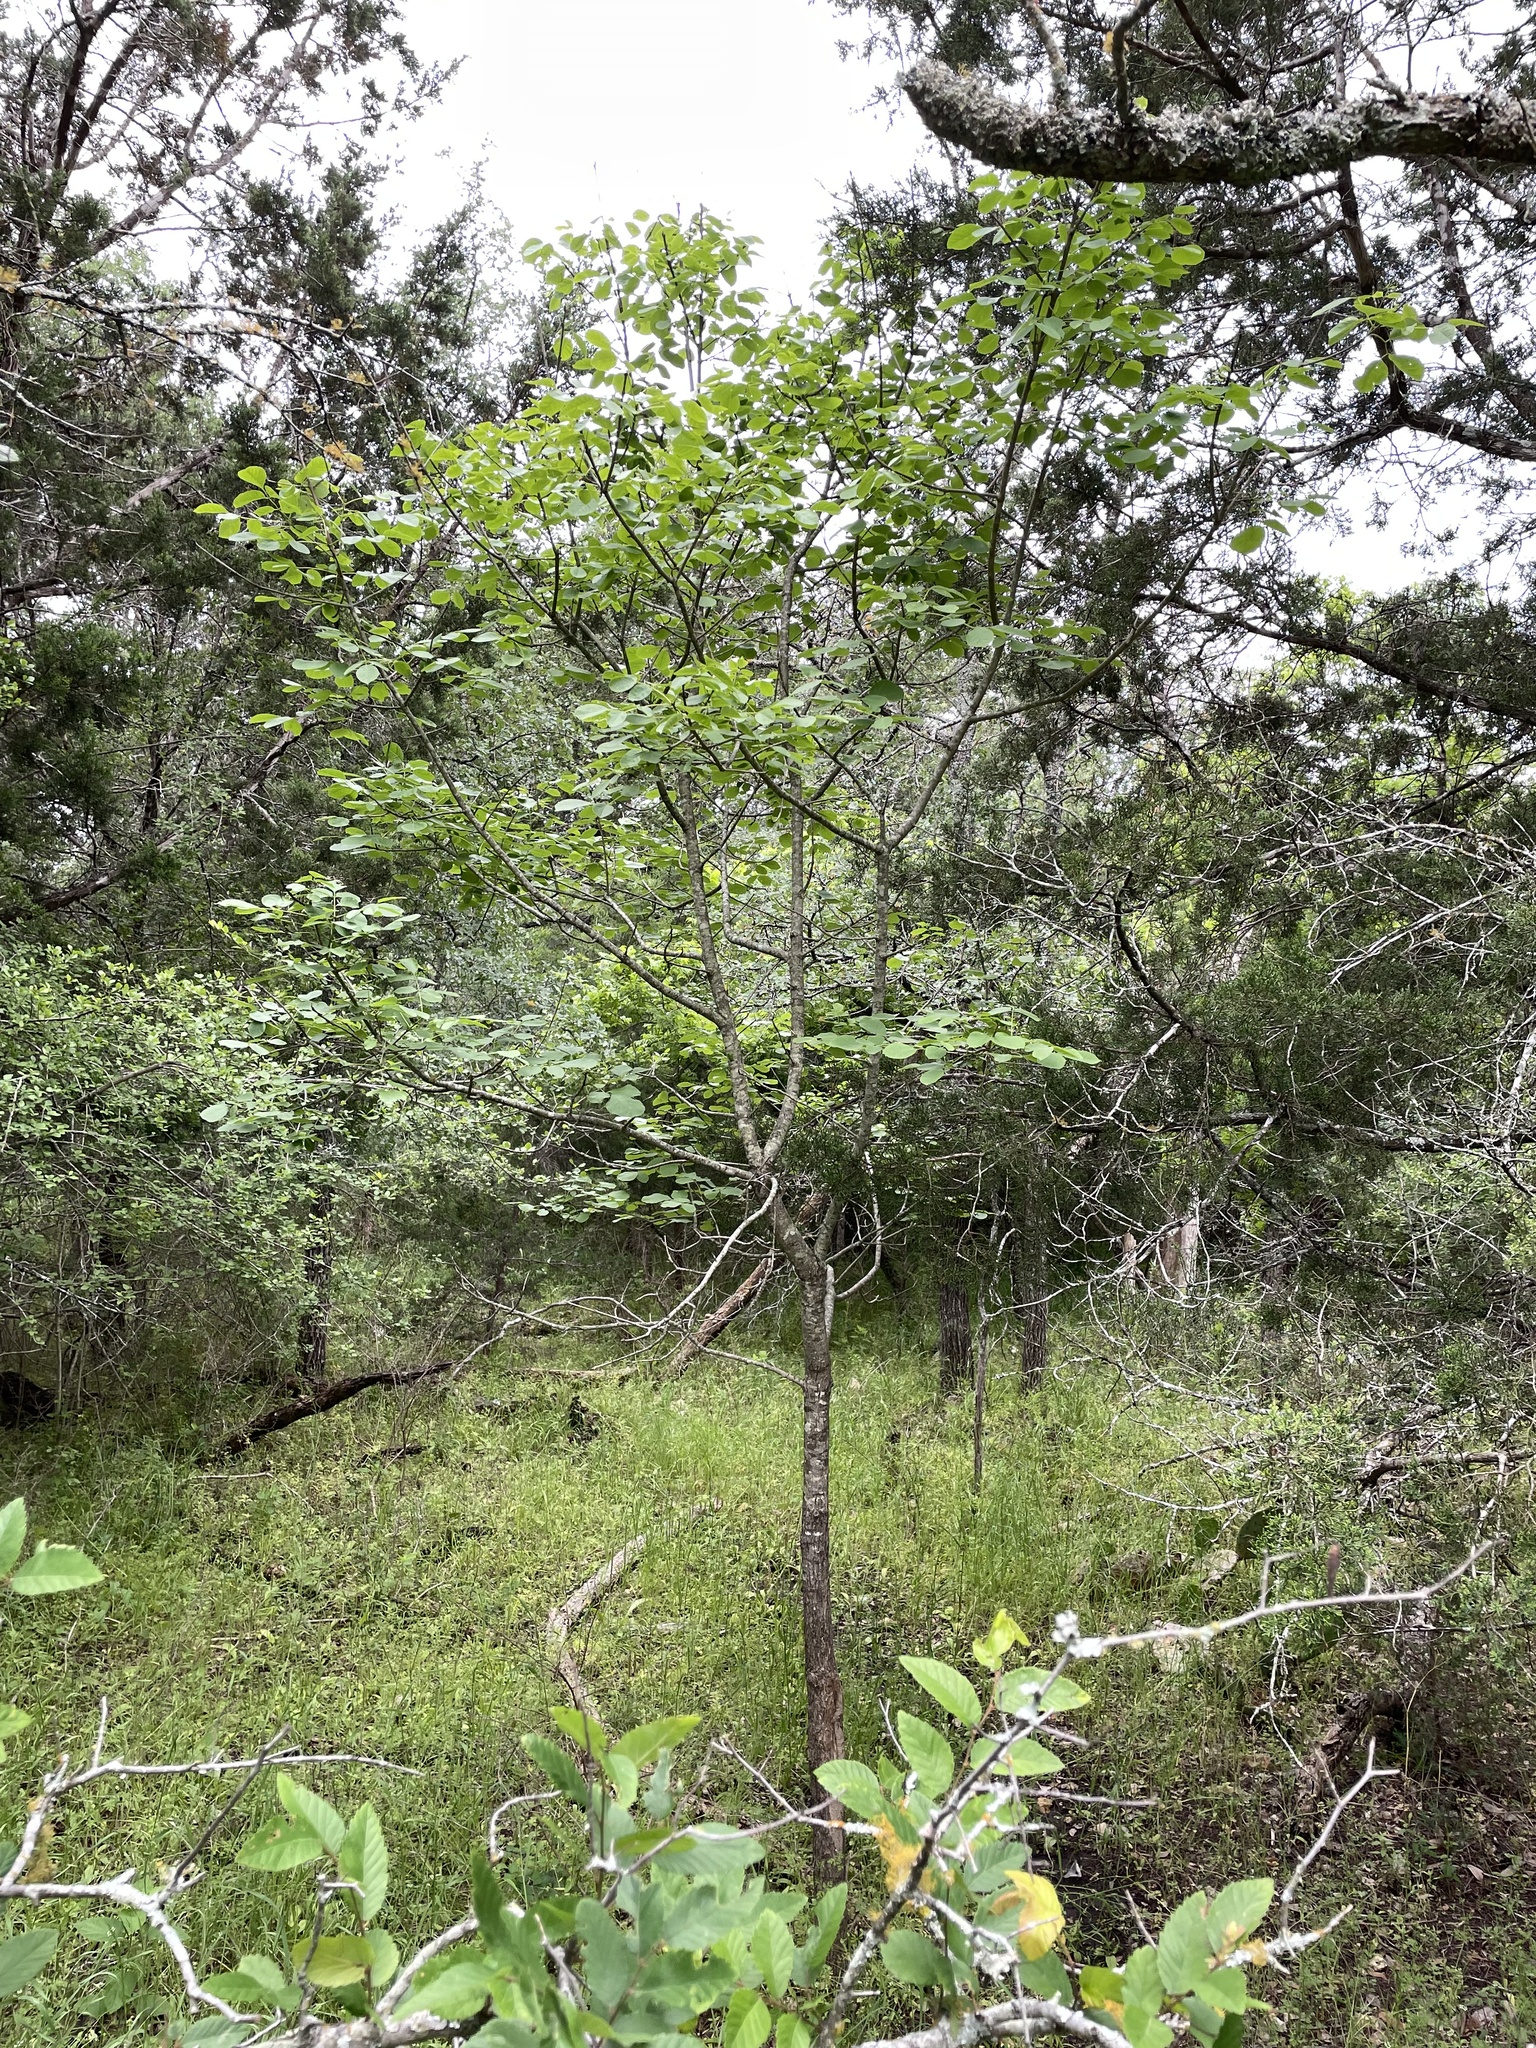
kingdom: Plantae
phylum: Tracheophyta
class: Magnoliopsida
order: Lamiales
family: Oleaceae
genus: Fraxinus
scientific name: Fraxinus albicans
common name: Texas ash
